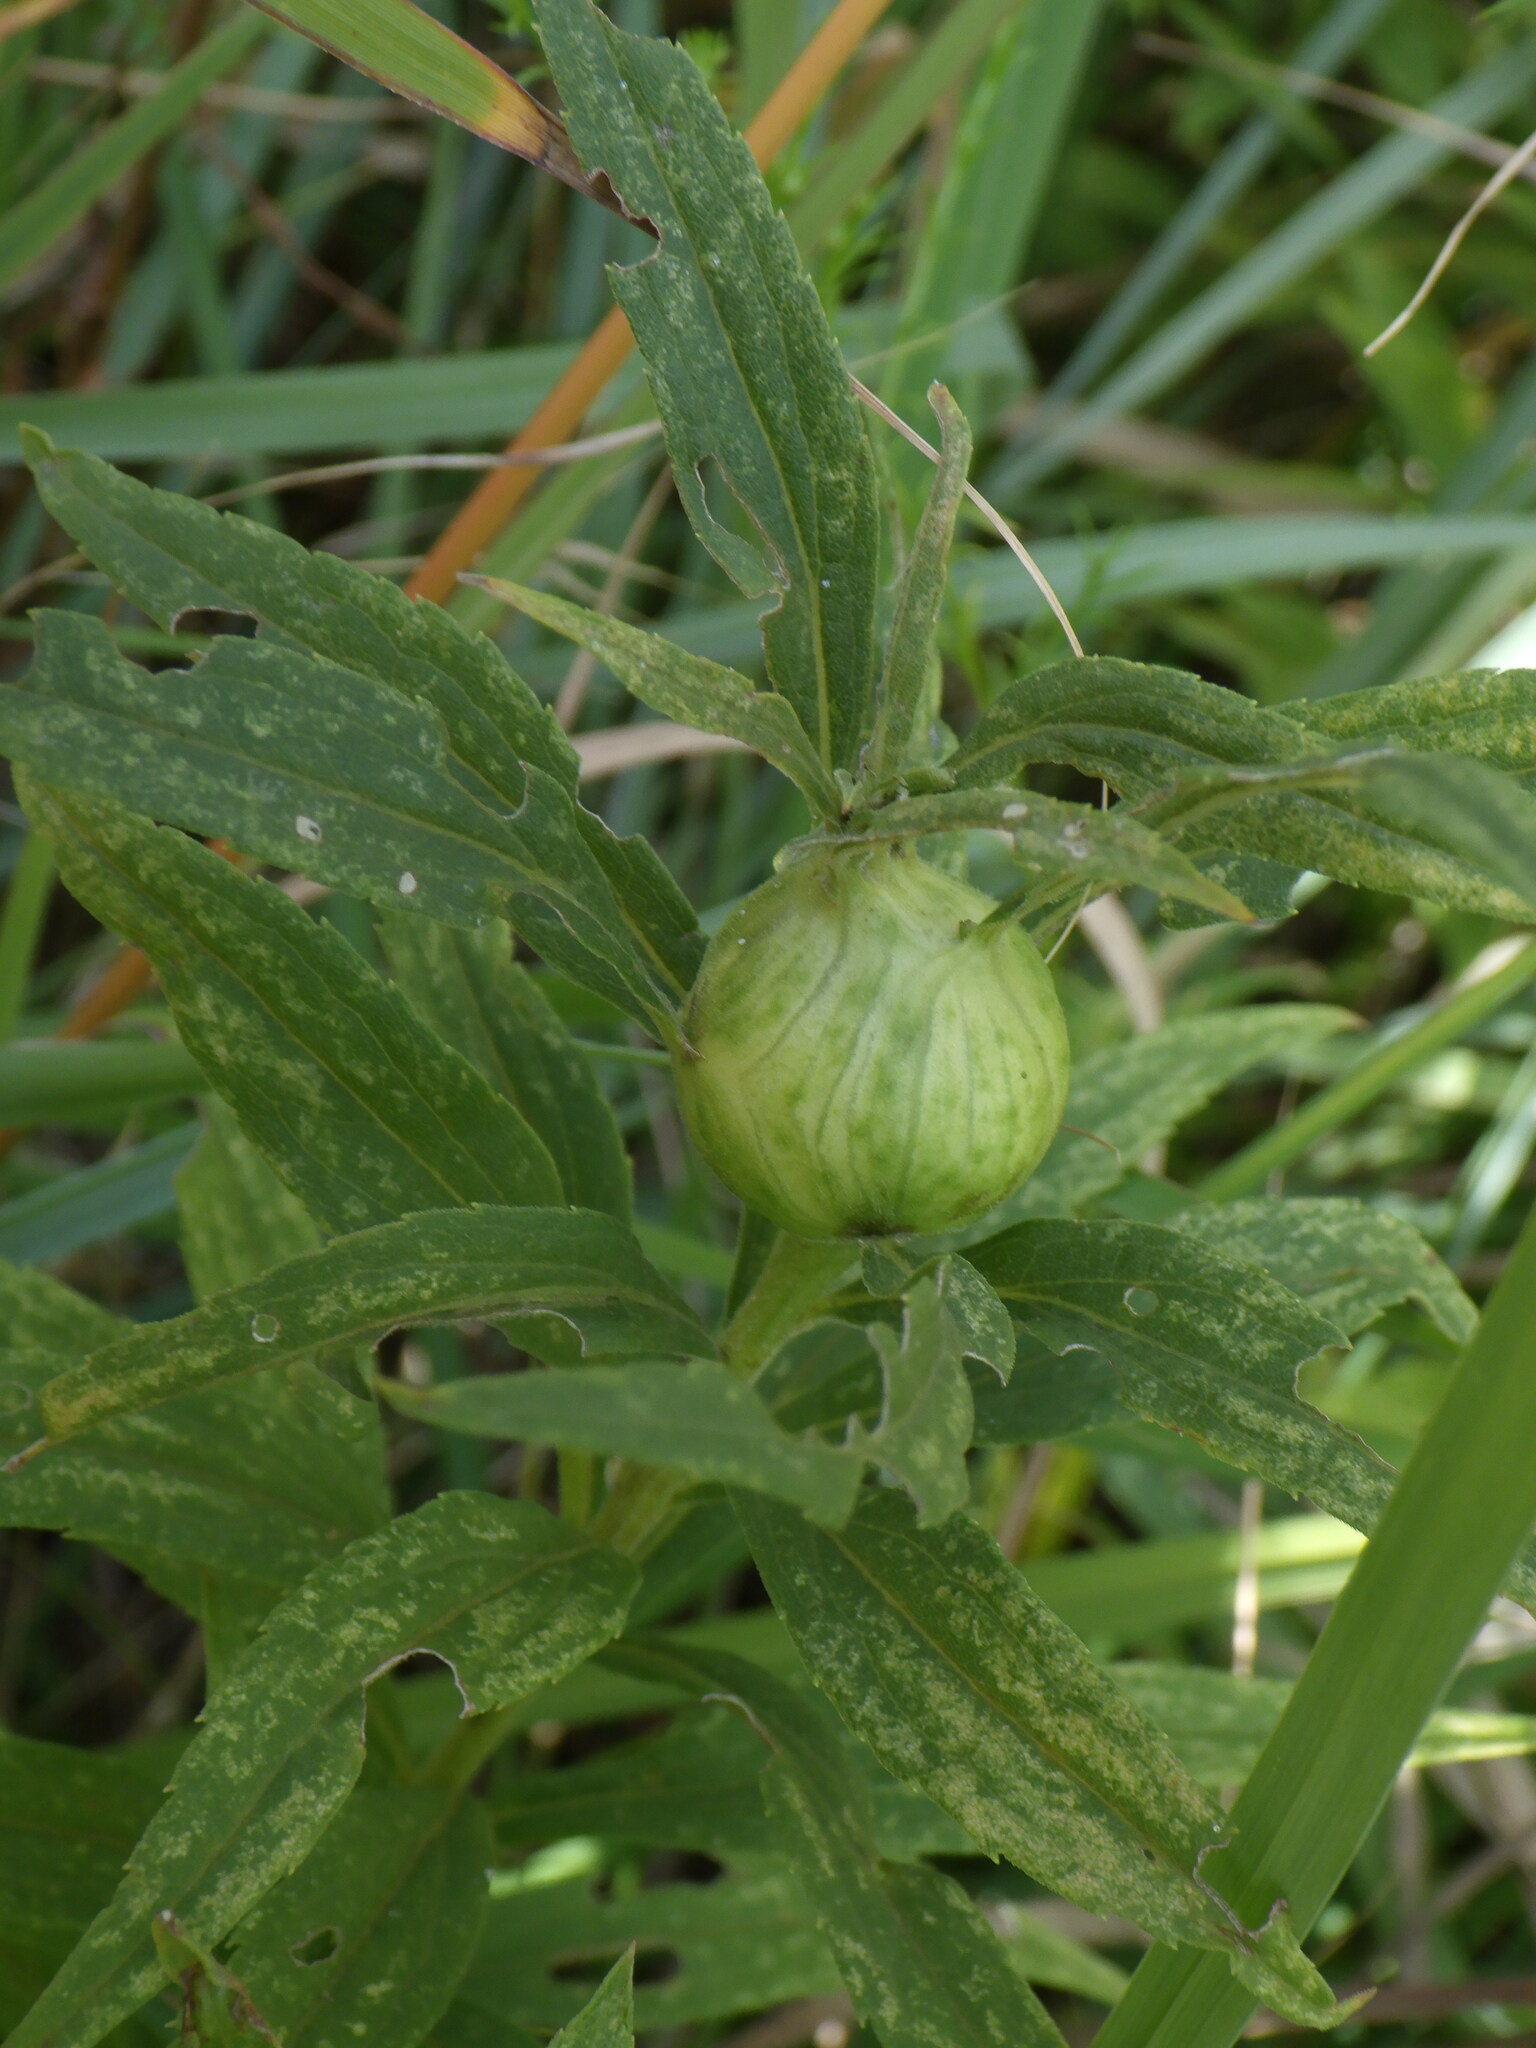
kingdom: Animalia
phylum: Arthropoda
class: Insecta
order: Diptera
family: Tephritidae
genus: Eurosta
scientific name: Eurosta solidaginis
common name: Goldenrod gall fly
